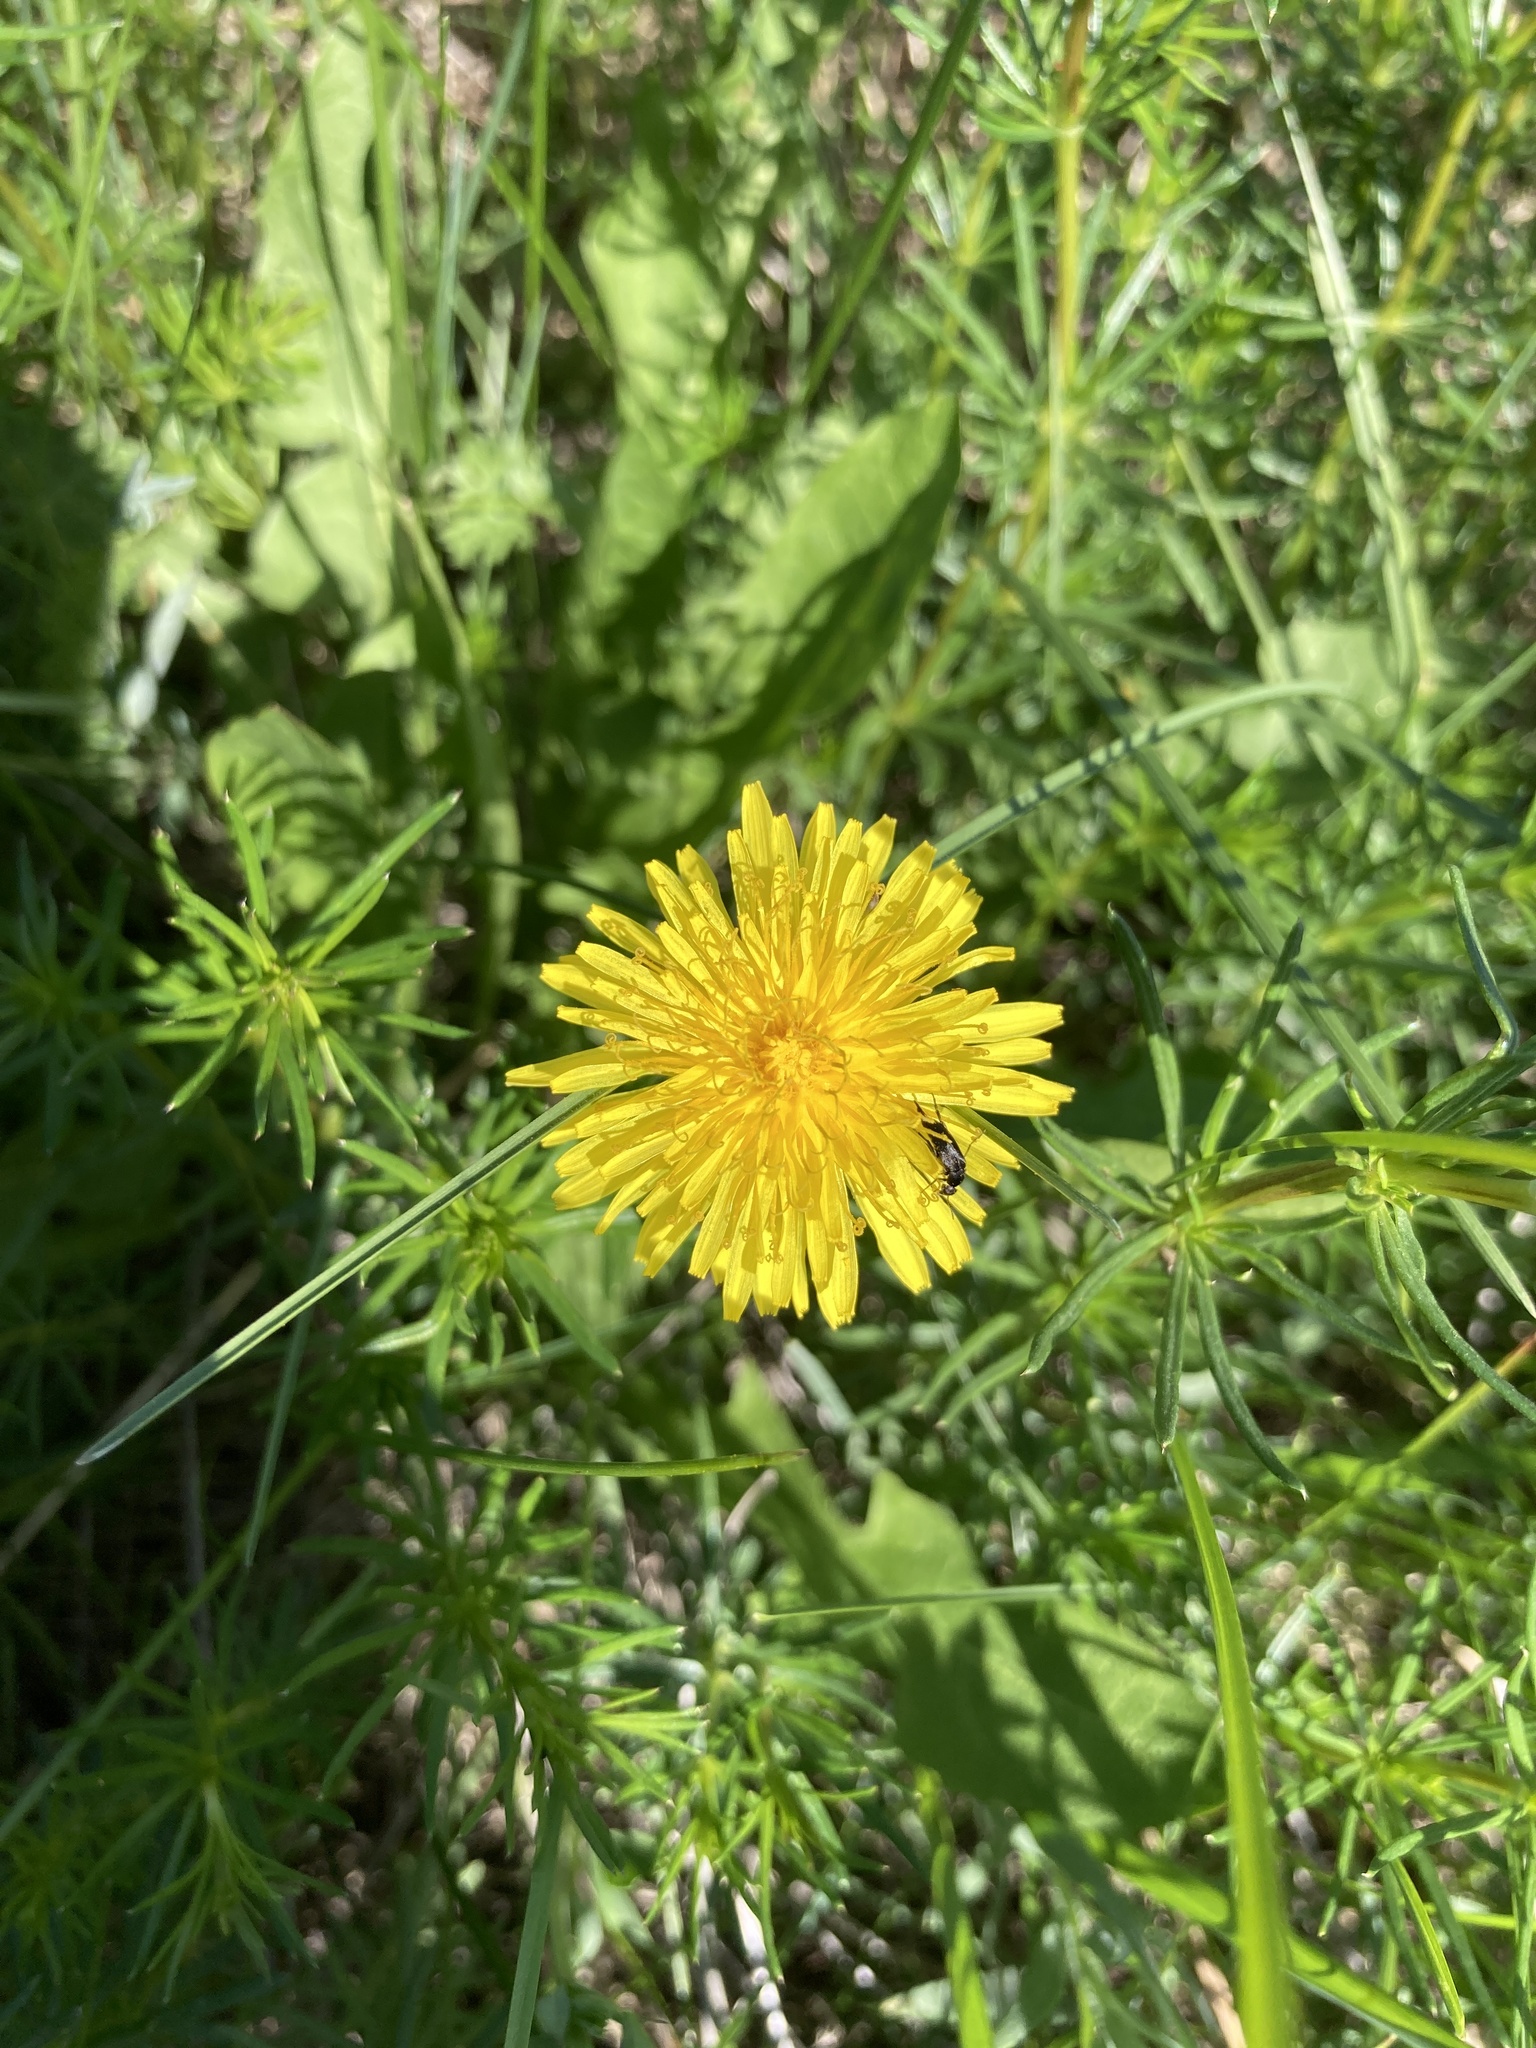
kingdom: Plantae
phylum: Tracheophyta
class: Magnoliopsida
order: Asterales
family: Asteraceae
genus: Taraxacum
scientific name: Taraxacum officinale
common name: Common dandelion
